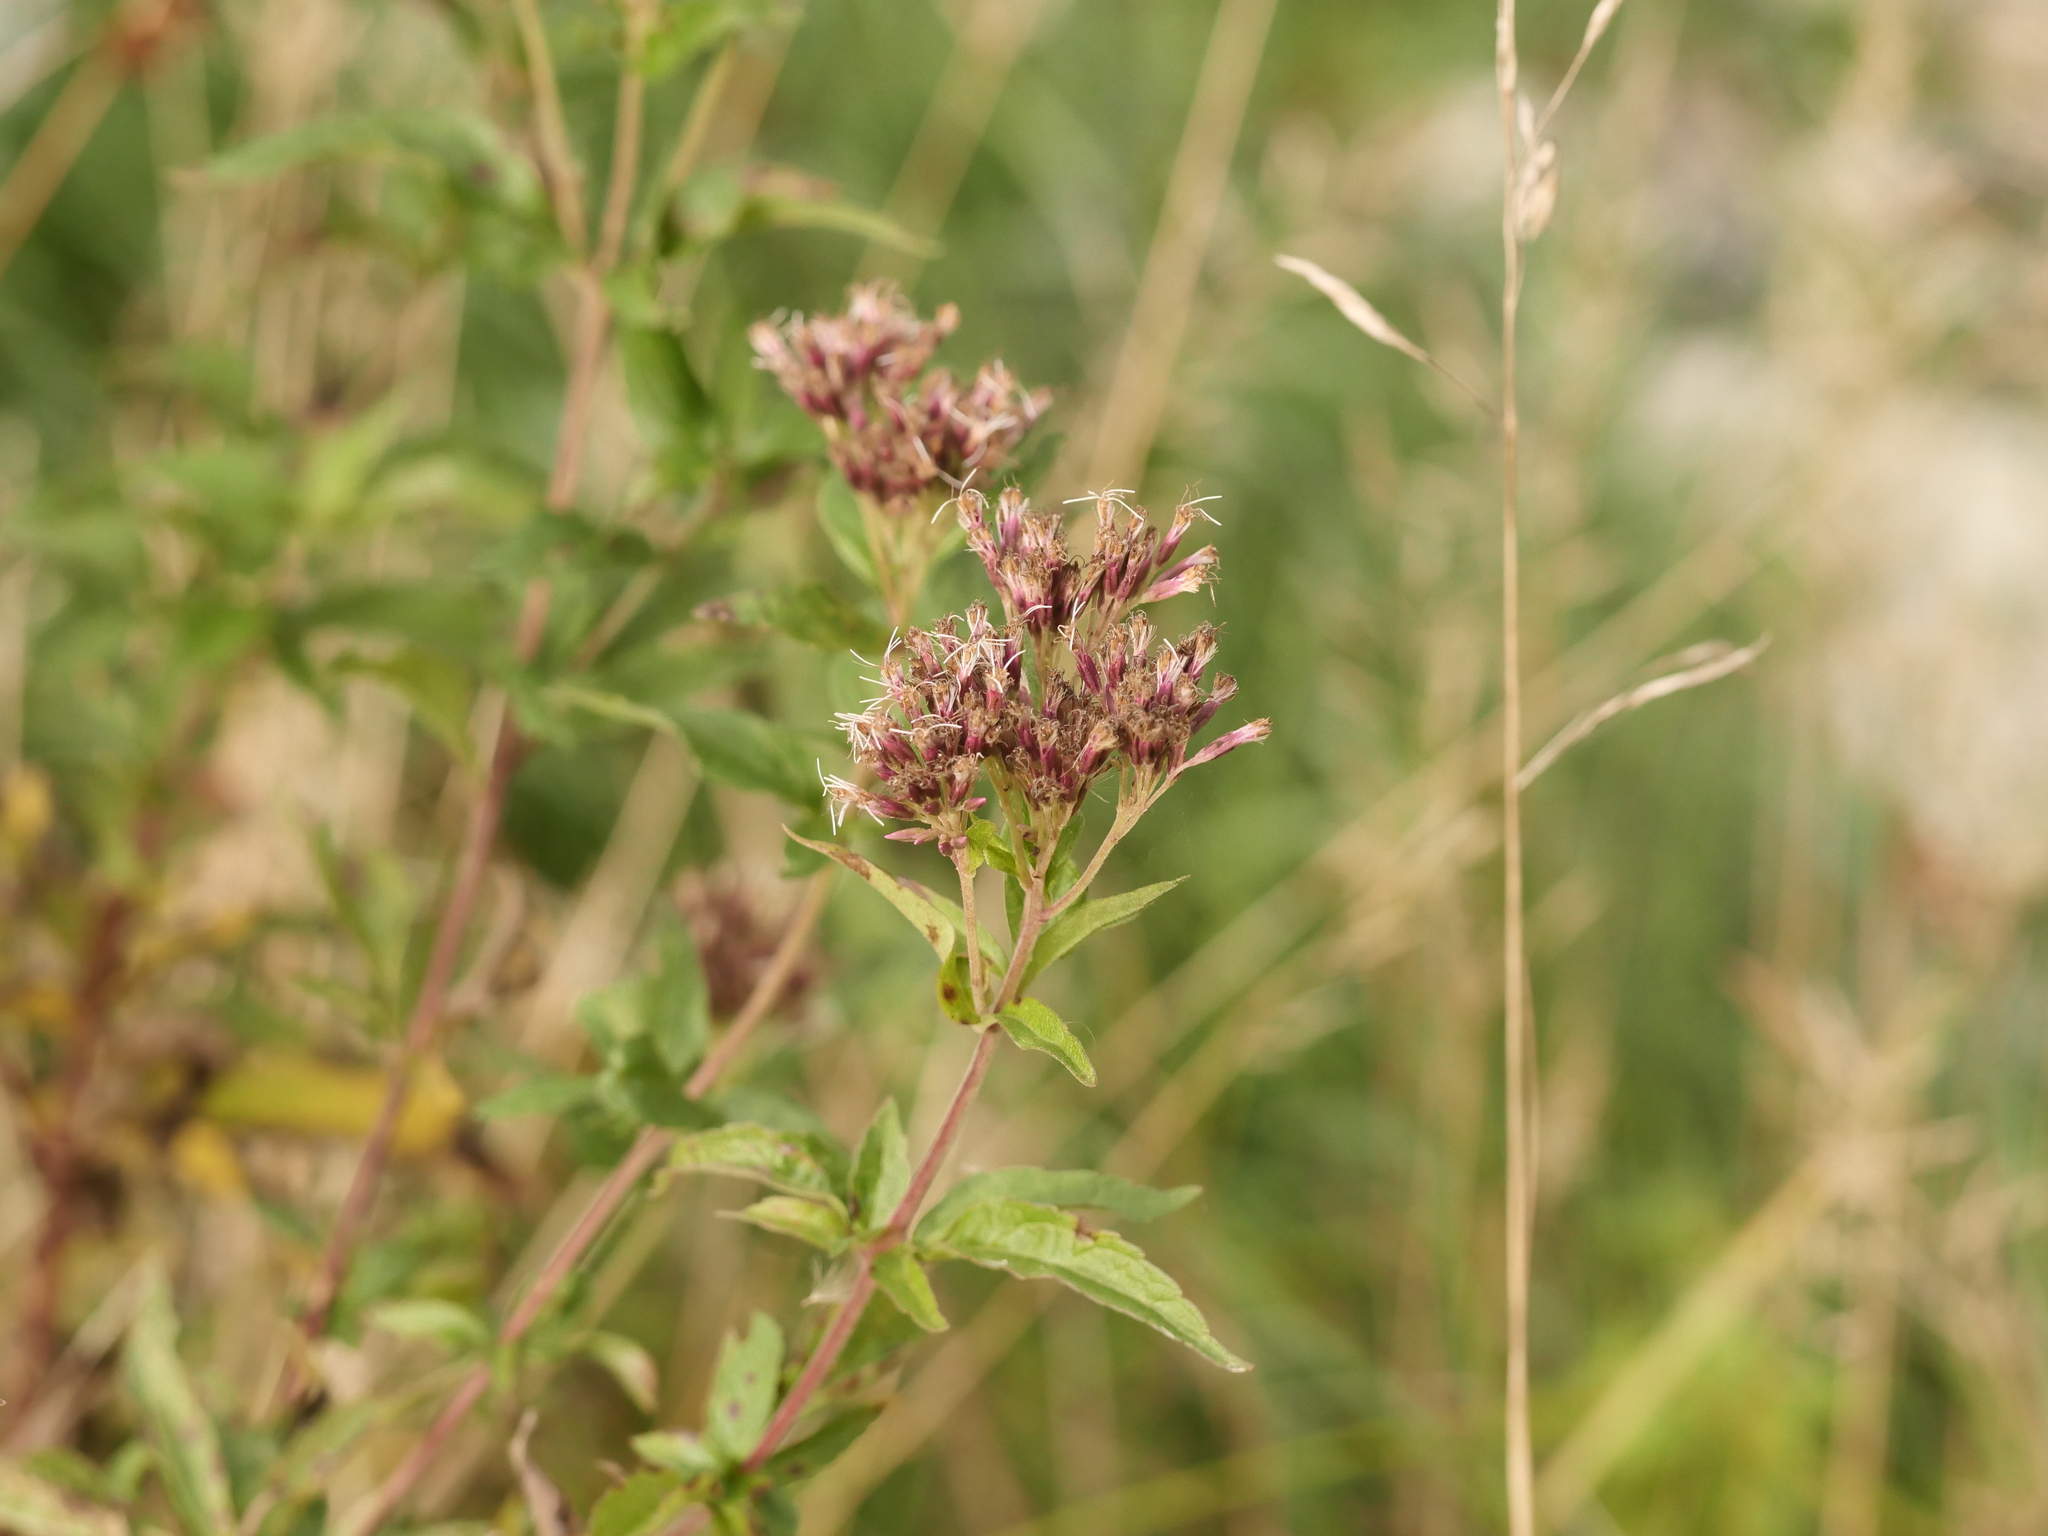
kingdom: Plantae
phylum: Tracheophyta
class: Magnoliopsida
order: Asterales
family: Asteraceae
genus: Eupatorium
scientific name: Eupatorium cannabinum
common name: Hemp-agrimony
